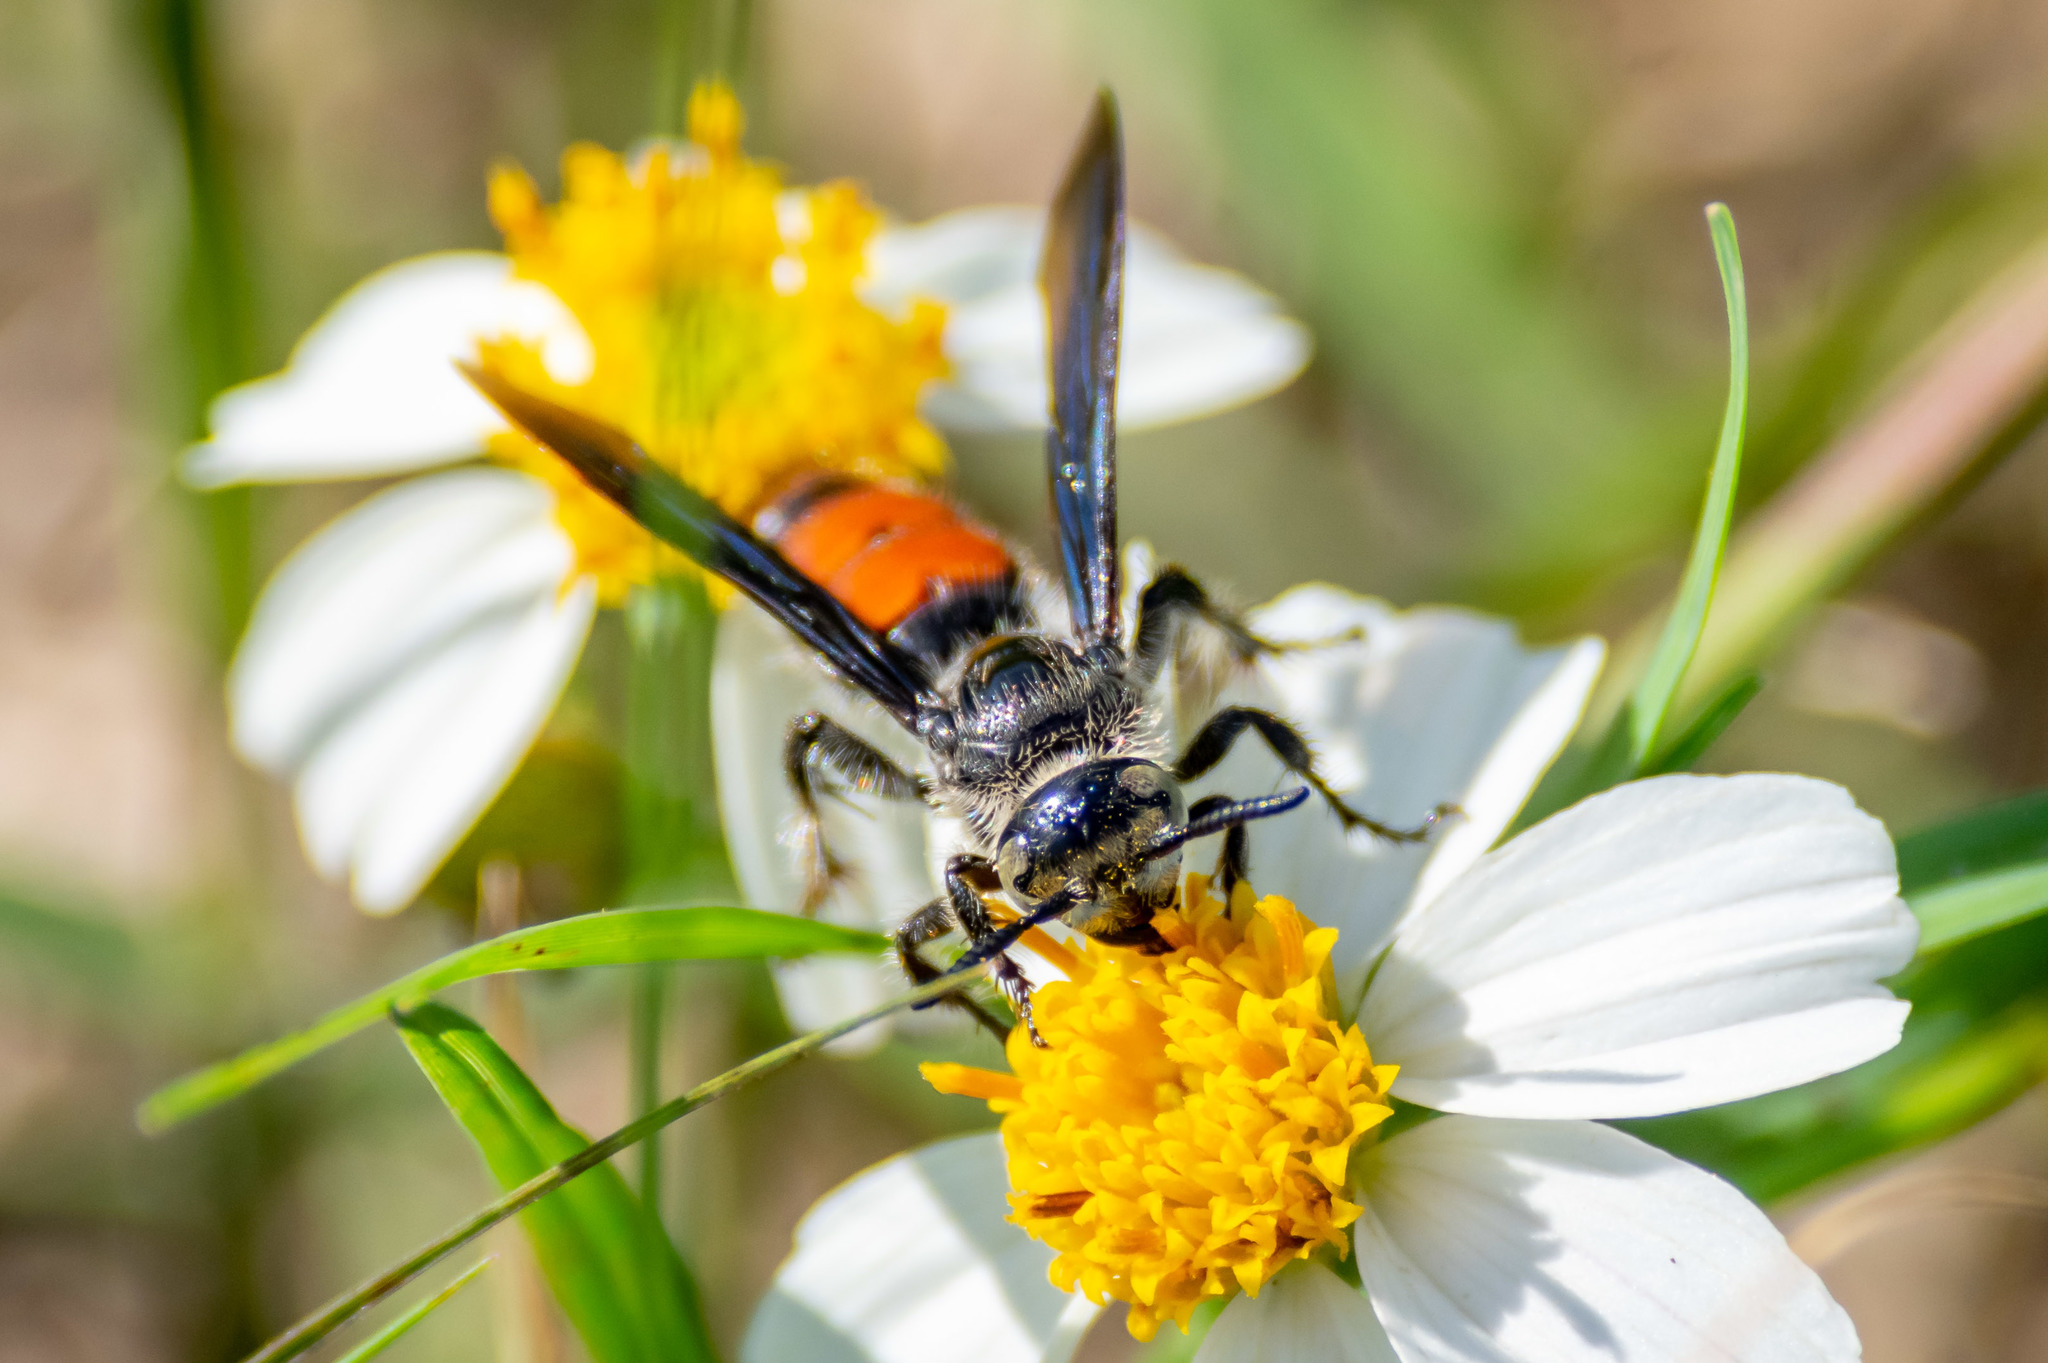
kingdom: Animalia
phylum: Arthropoda
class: Insecta
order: Hymenoptera
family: Scoliidae
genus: Dielis
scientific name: Dielis dorsata
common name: Scoliid wasp
